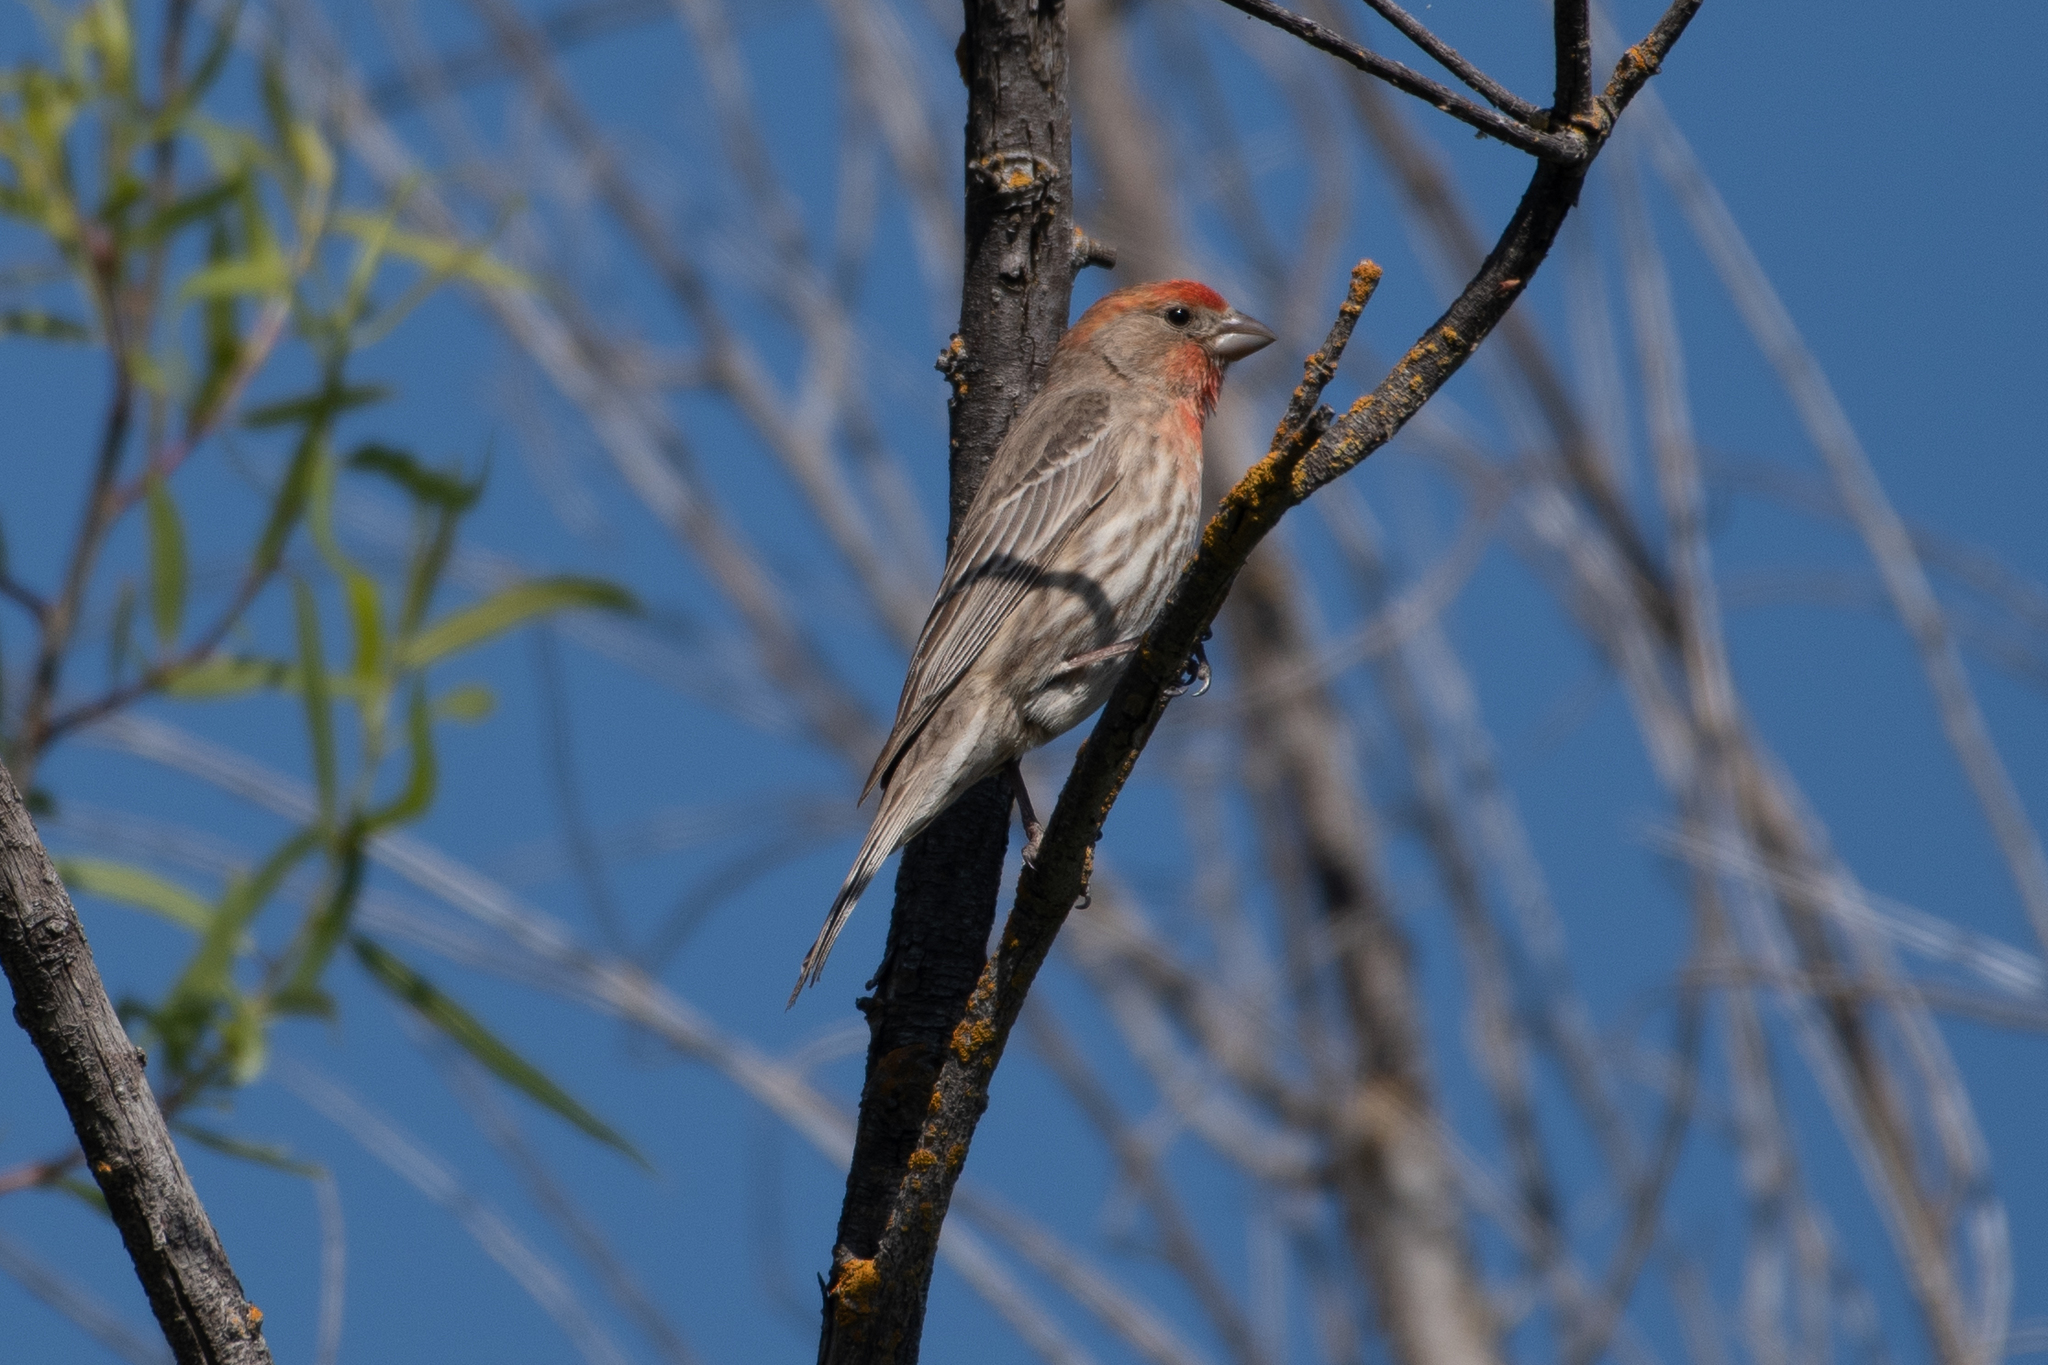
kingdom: Animalia
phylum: Chordata
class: Aves
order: Passeriformes
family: Fringillidae
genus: Haemorhous
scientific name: Haemorhous mexicanus
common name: House finch
